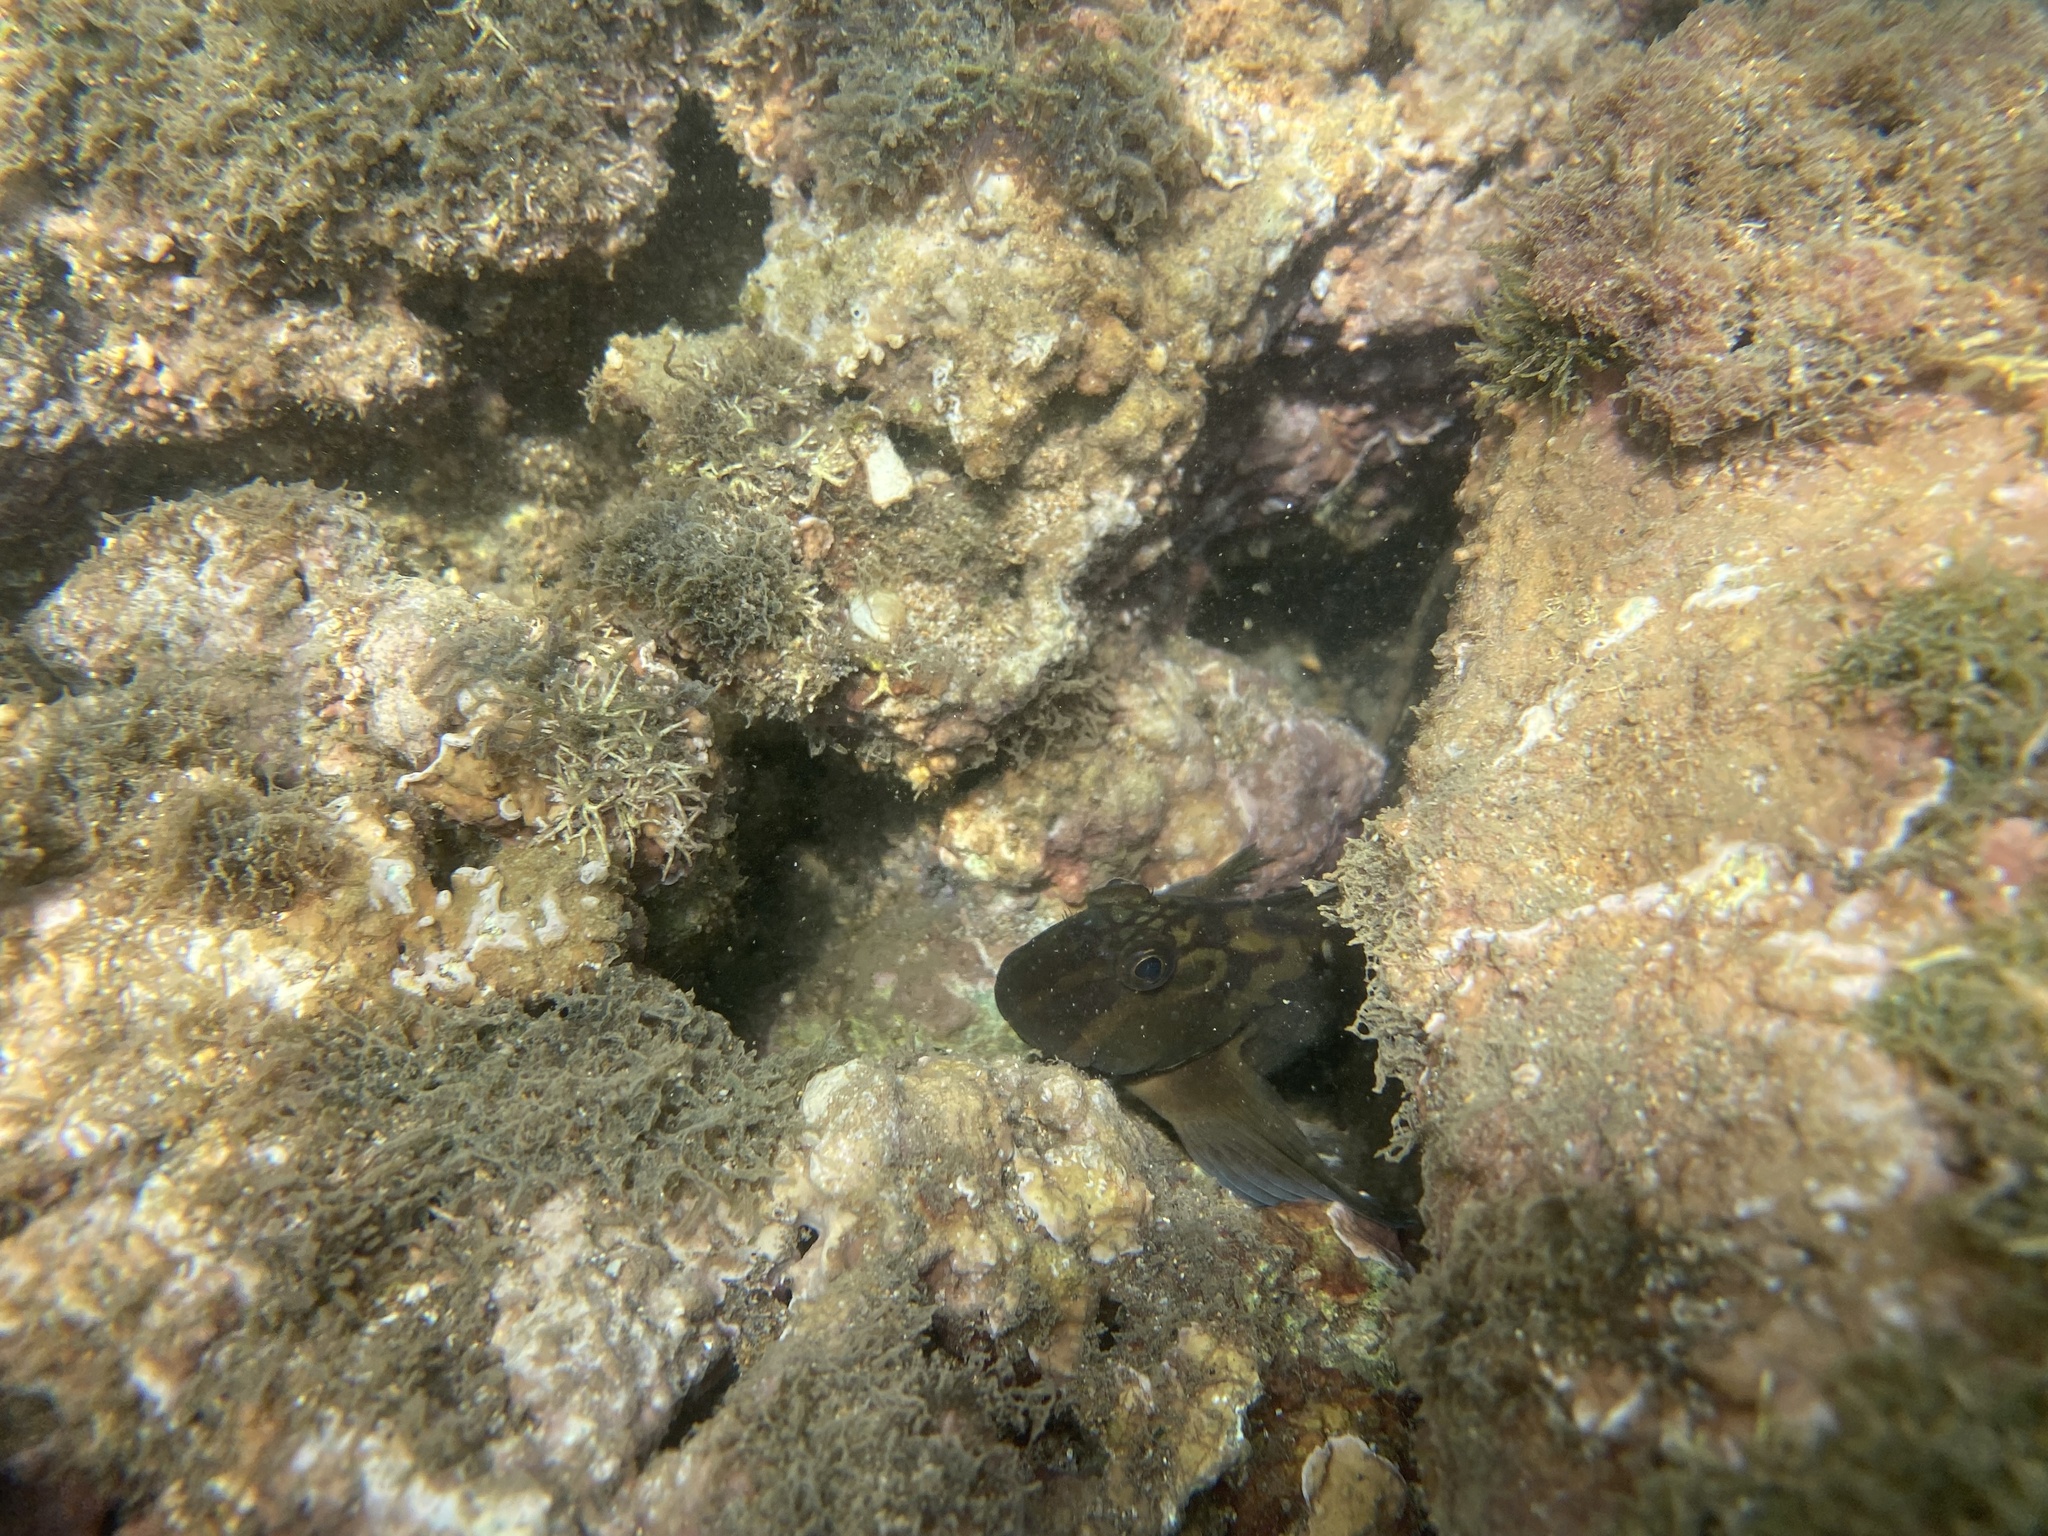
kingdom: Animalia
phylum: Chordata
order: Perciformes
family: Blenniidae
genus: Ophioblennius
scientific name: Ophioblennius steindachneri
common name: Panamic fanged blenny
